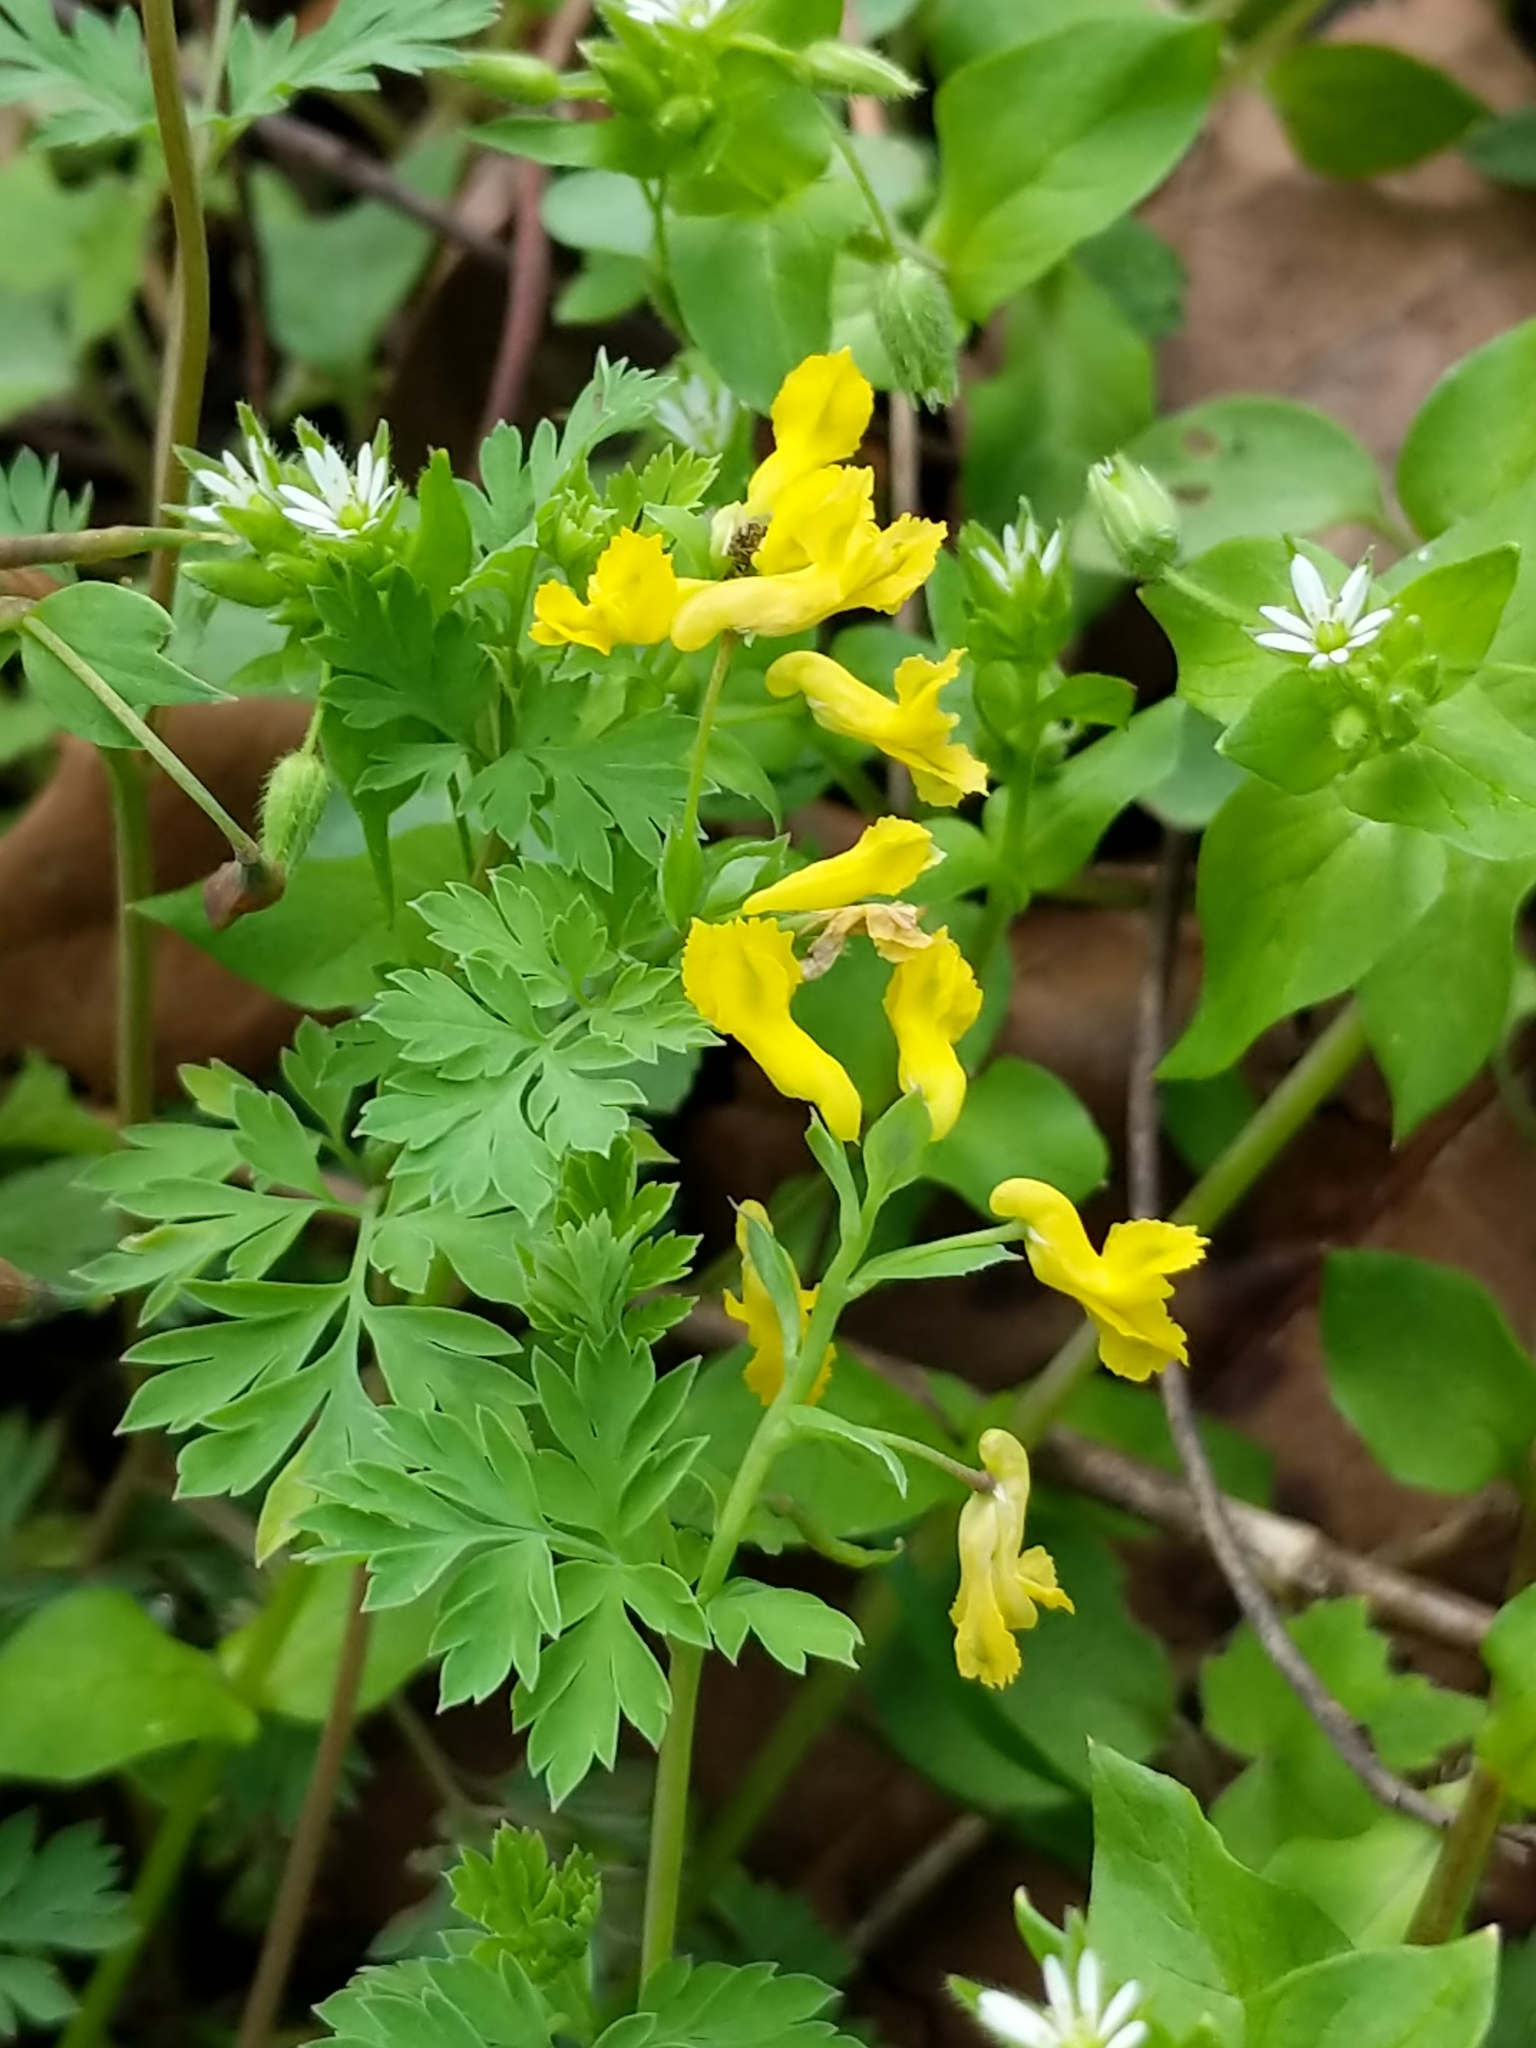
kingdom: Plantae
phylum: Tracheophyta
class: Magnoliopsida
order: Ranunculales
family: Papaveraceae
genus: Corydalis
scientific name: Corydalis flavula
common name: Yellow corydalis
